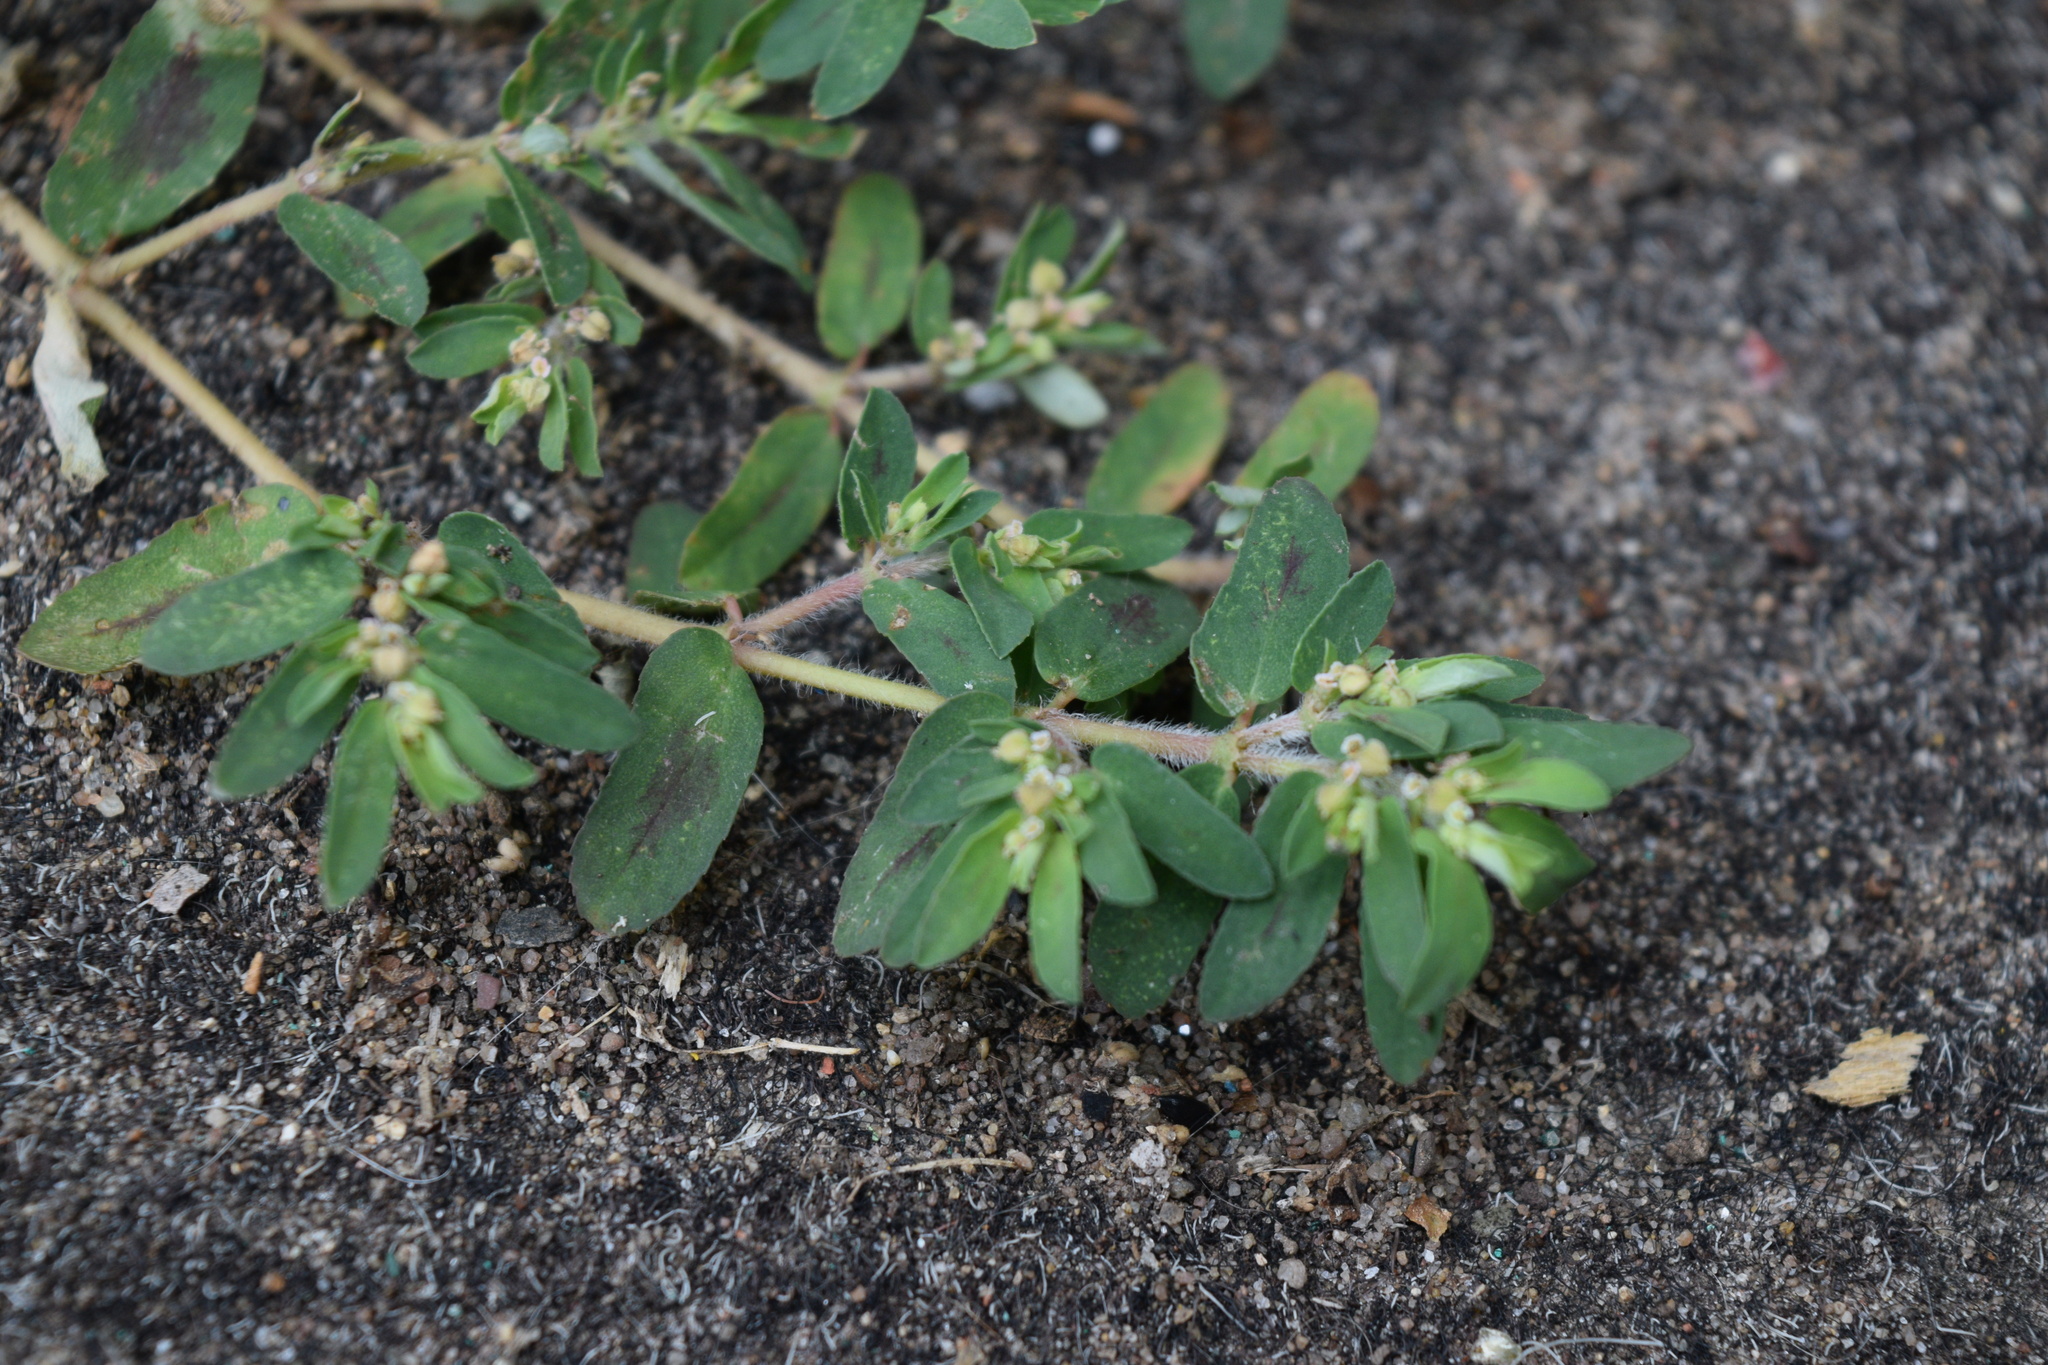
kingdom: Plantae
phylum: Tracheophyta
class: Magnoliopsida
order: Malpighiales
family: Euphorbiaceae
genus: Euphorbia
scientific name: Euphorbia maculata
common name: Spotted spurge
